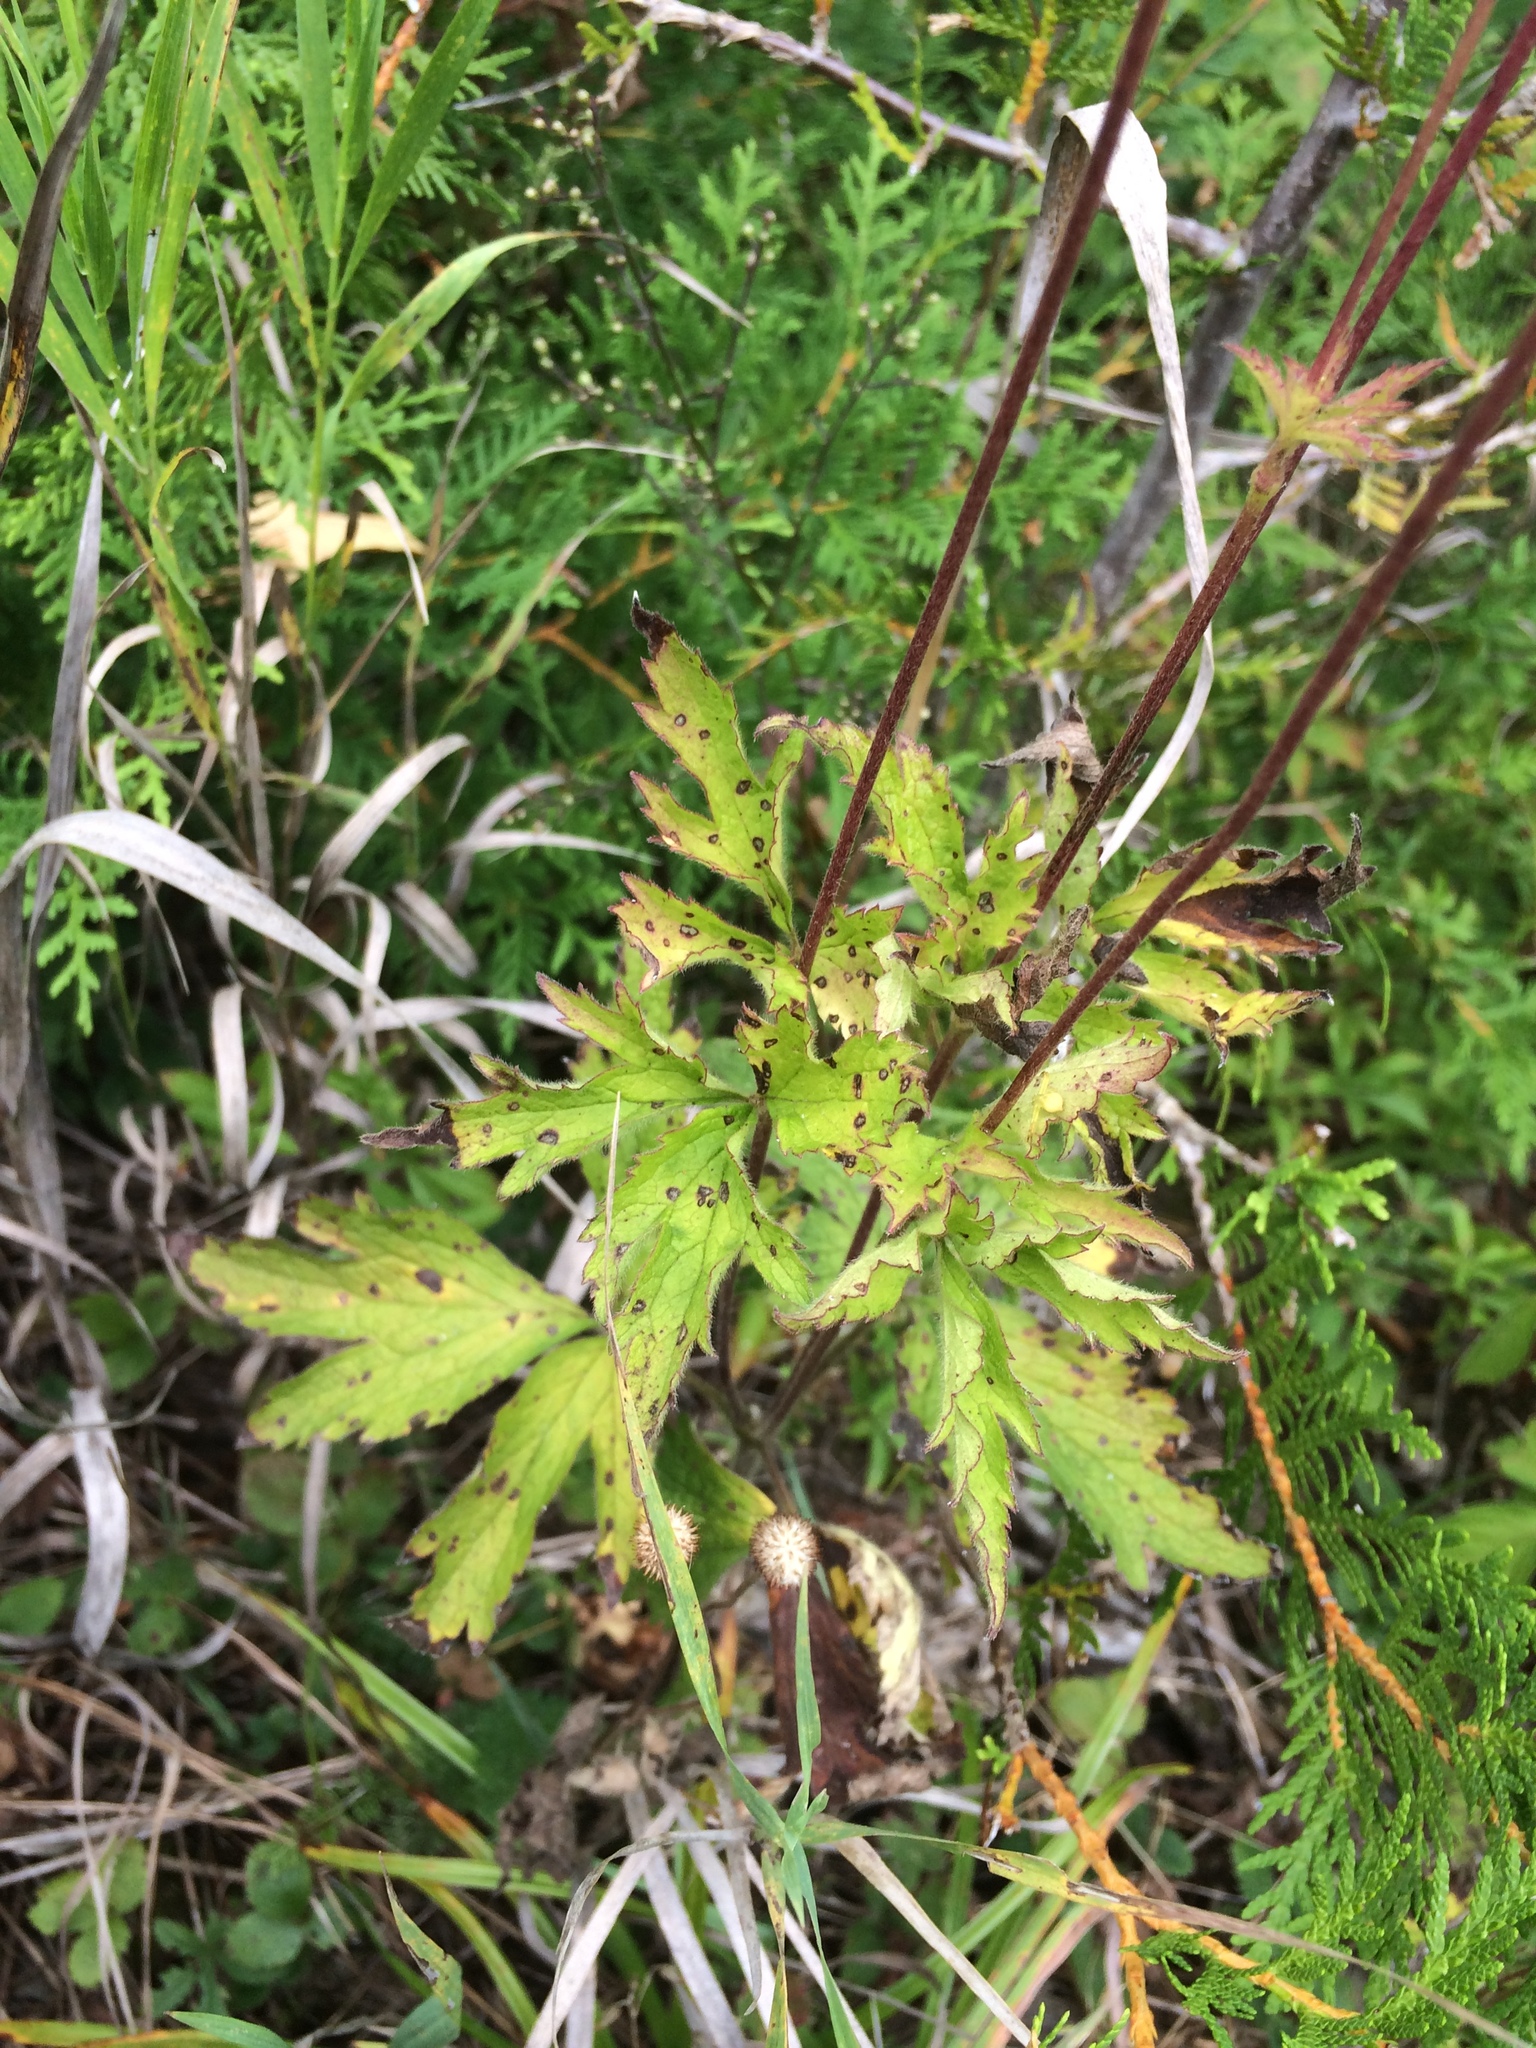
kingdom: Plantae
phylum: Tracheophyta
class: Magnoliopsida
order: Ranunculales
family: Ranunculaceae
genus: Anemone
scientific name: Anemone virginiana
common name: Tall anemone
